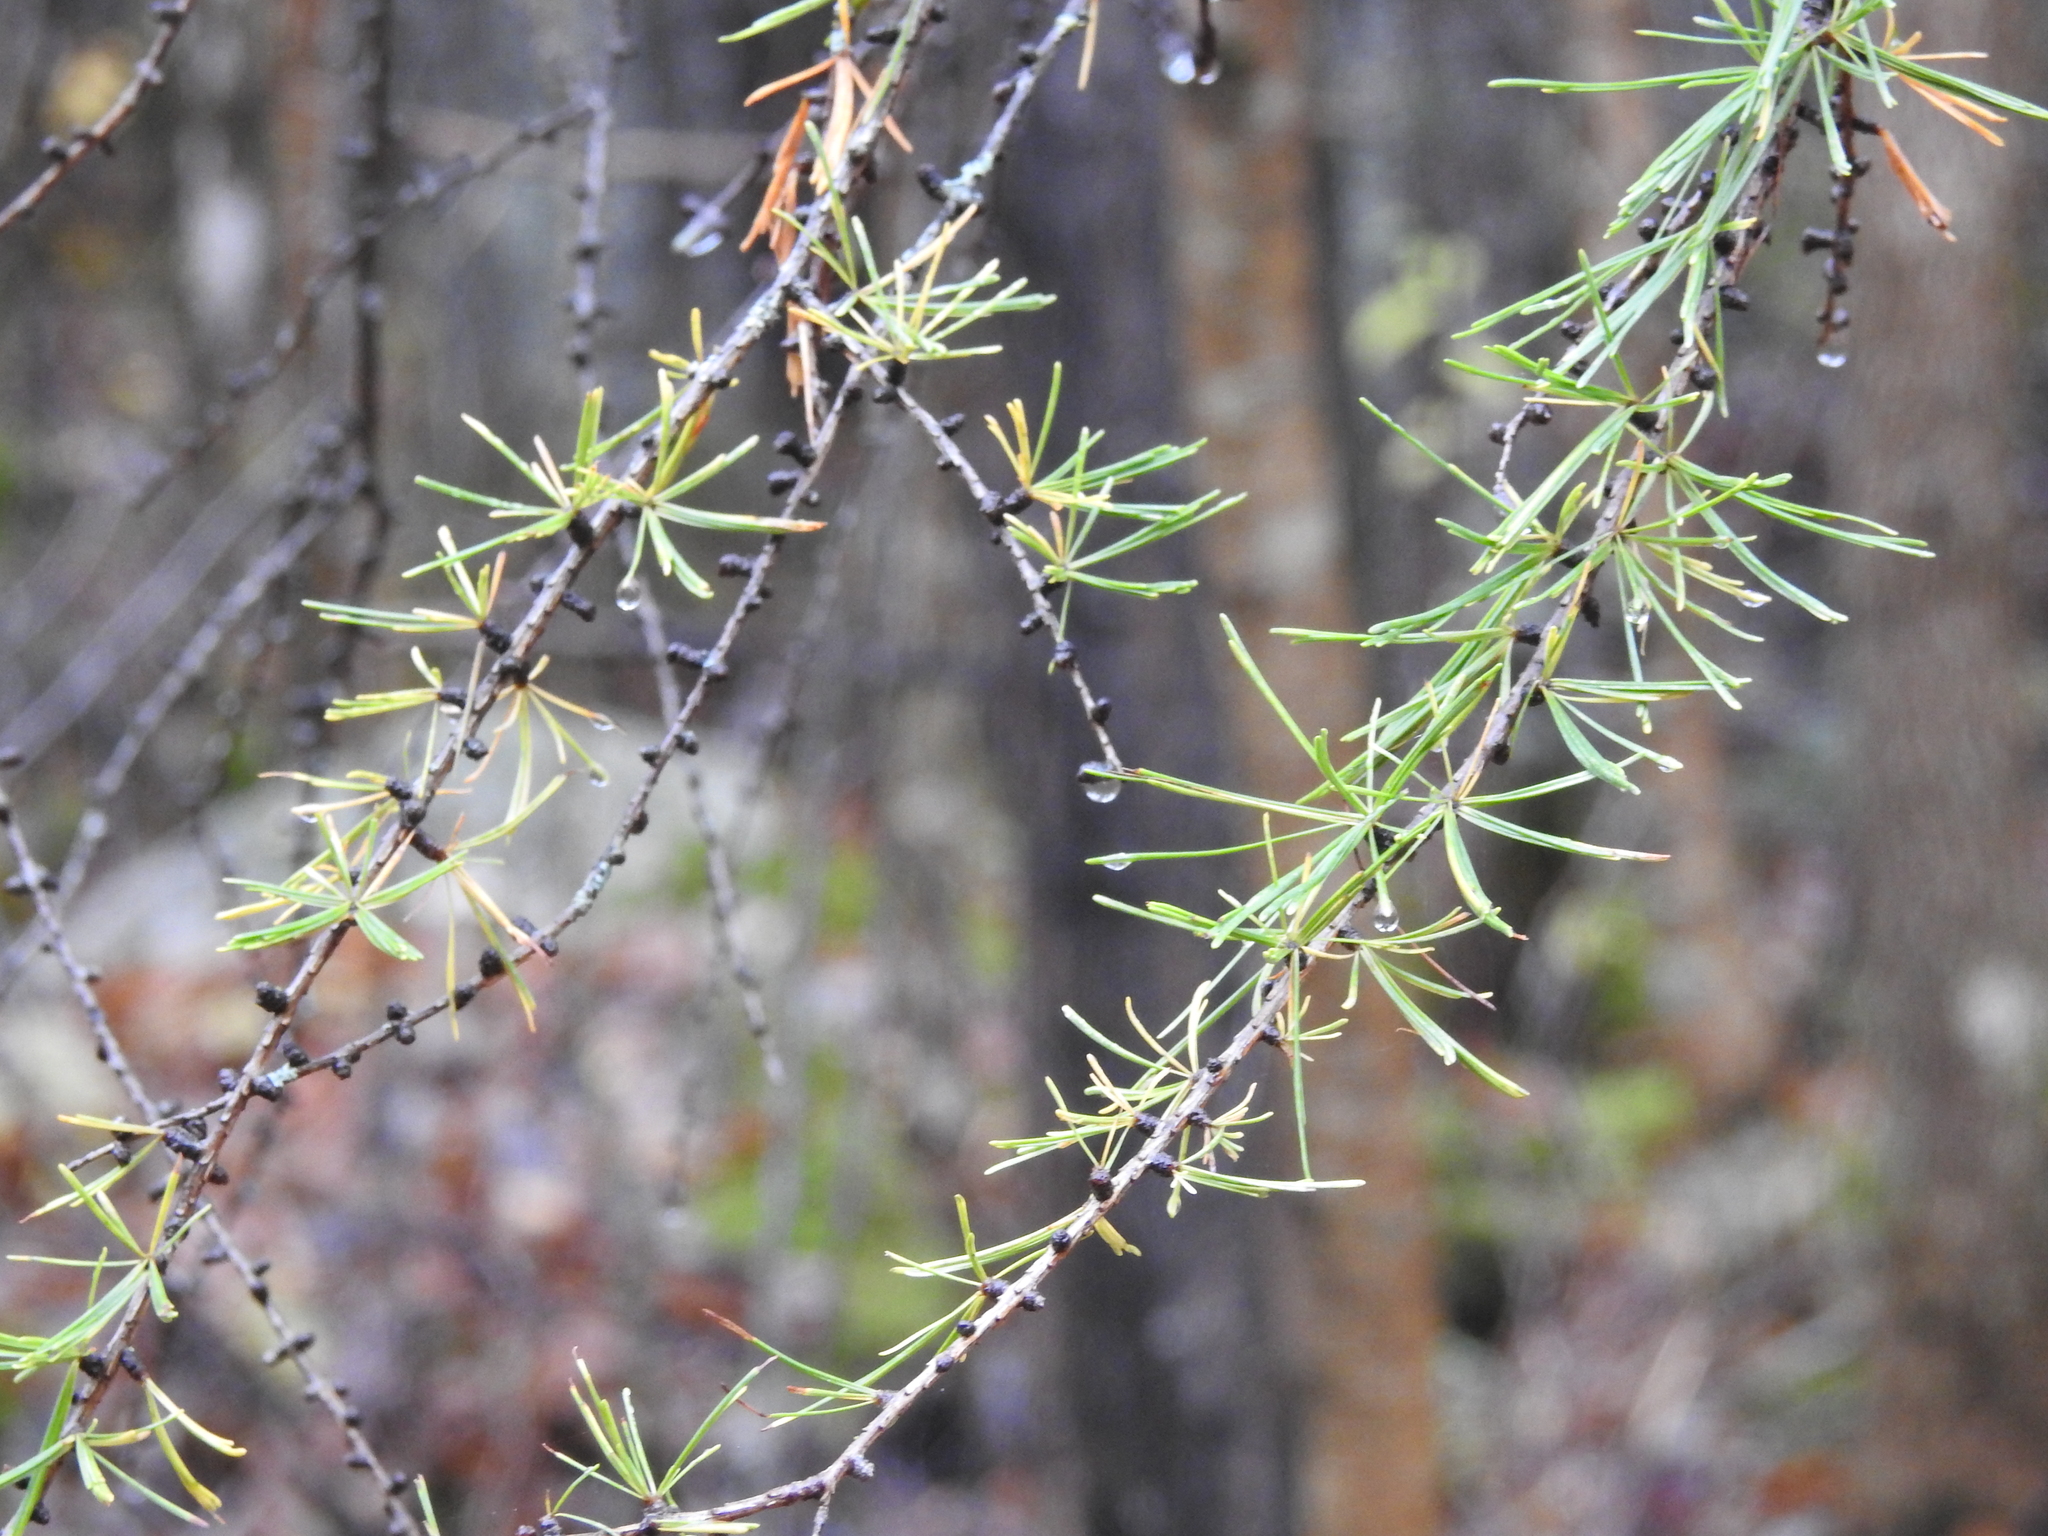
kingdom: Plantae
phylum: Tracheophyta
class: Pinopsida
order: Pinales
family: Pinaceae
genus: Larix
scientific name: Larix laricina
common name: American larch
